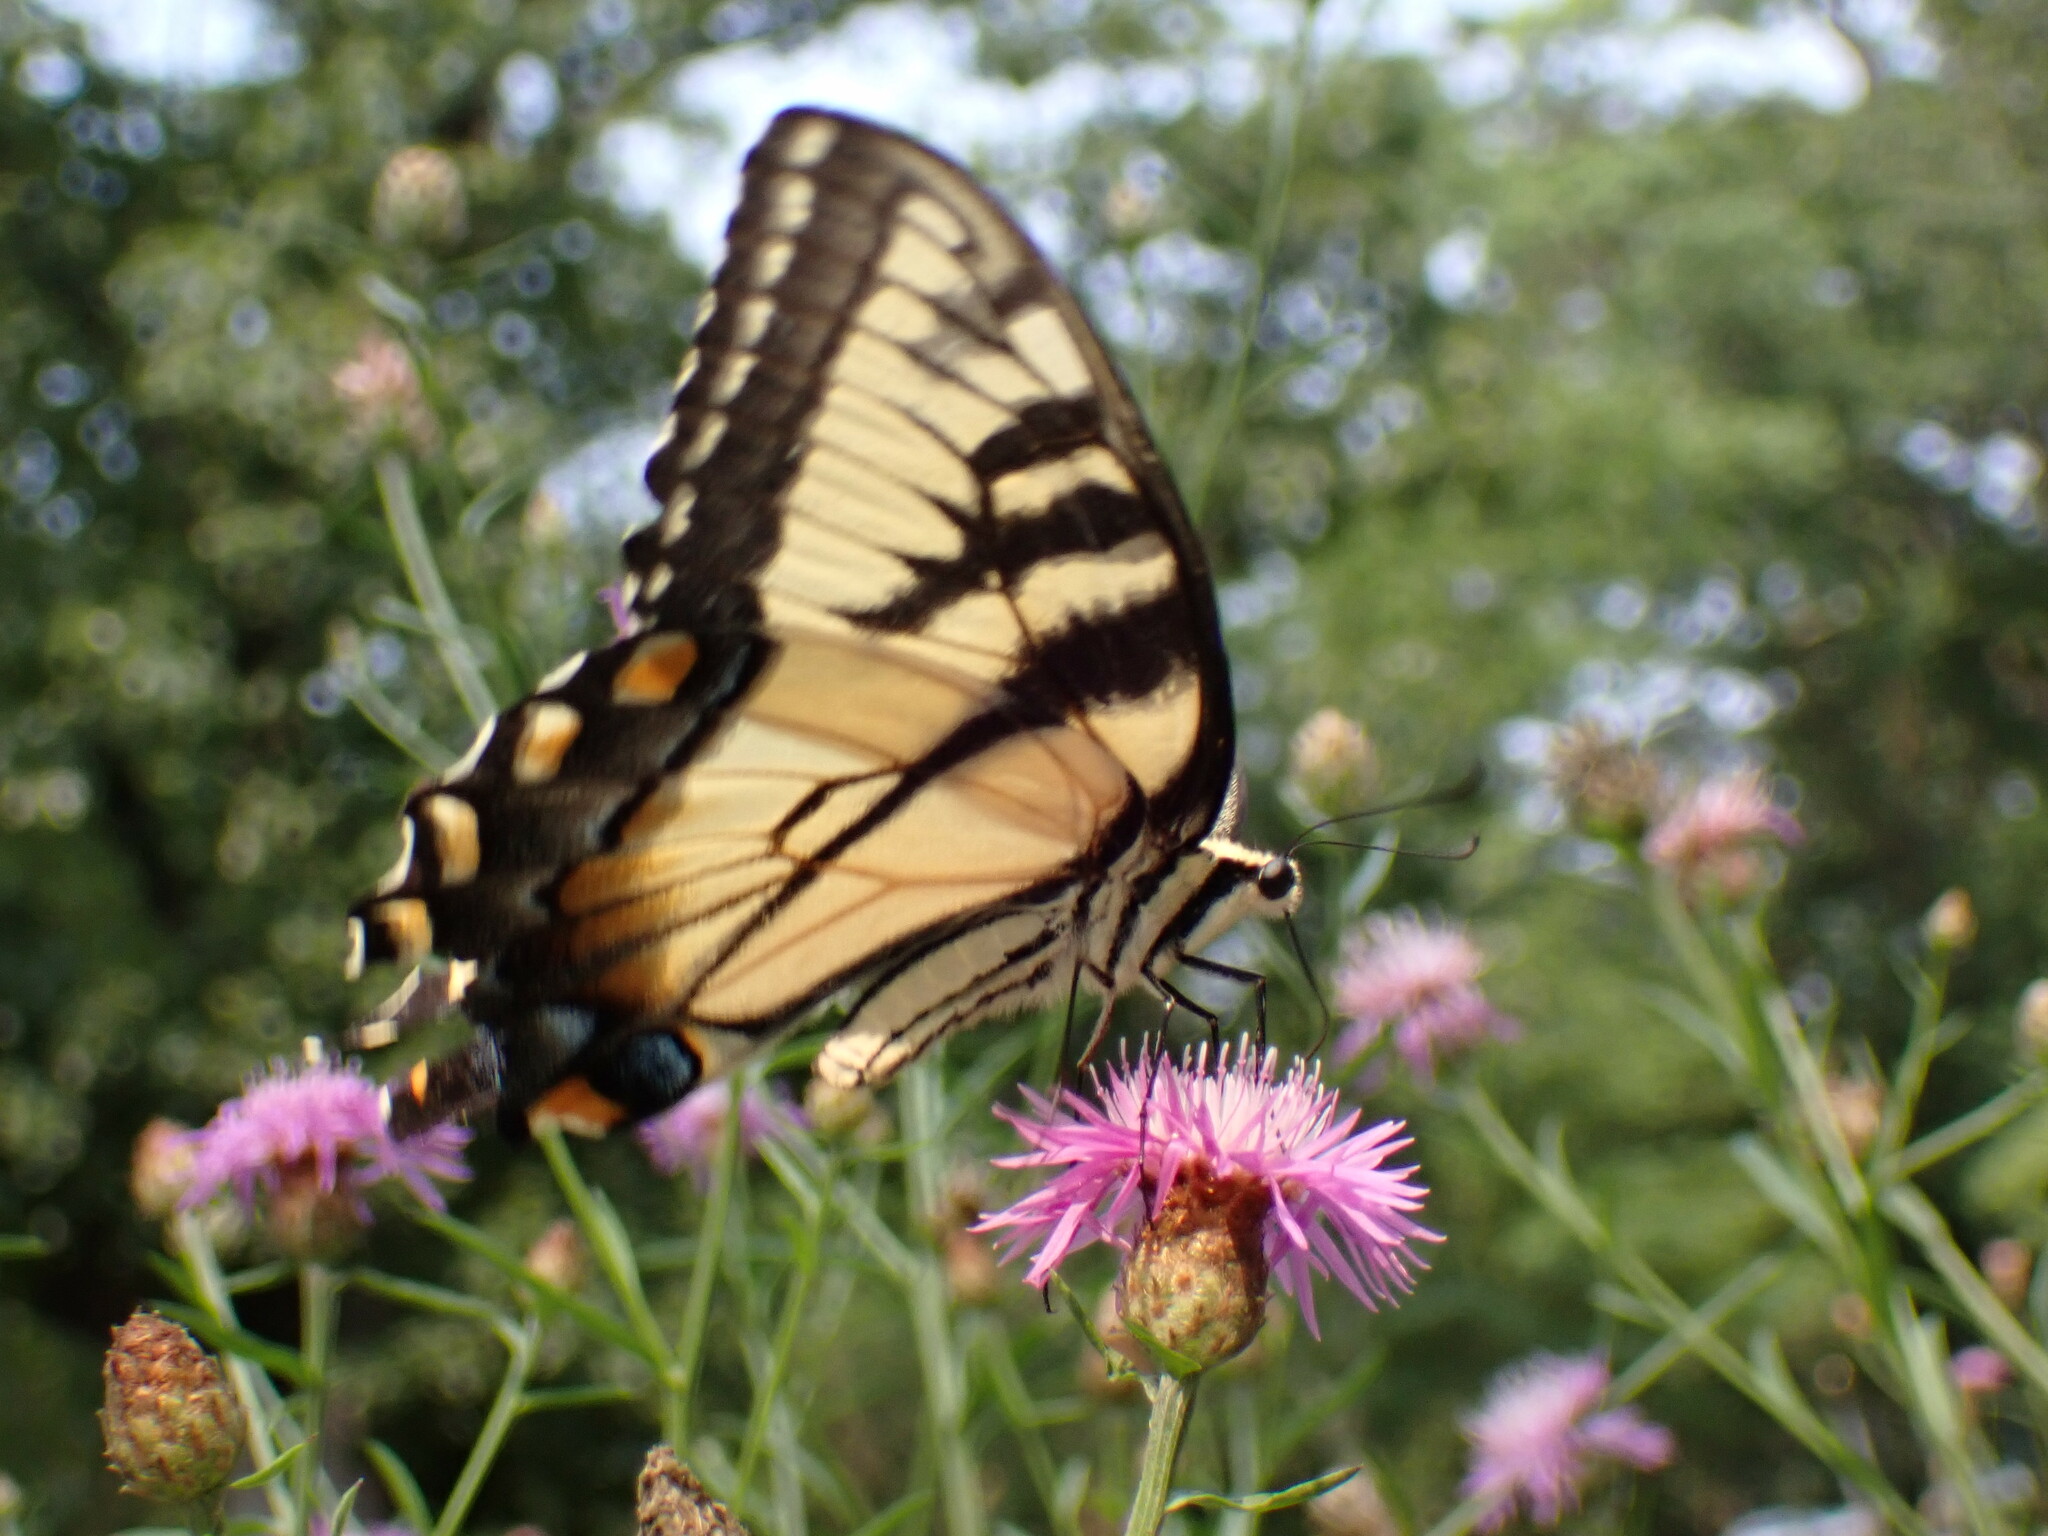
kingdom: Animalia
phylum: Arthropoda
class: Insecta
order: Lepidoptera
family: Papilionidae
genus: Papilio
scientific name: Papilio glaucus
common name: Tiger swallowtail
